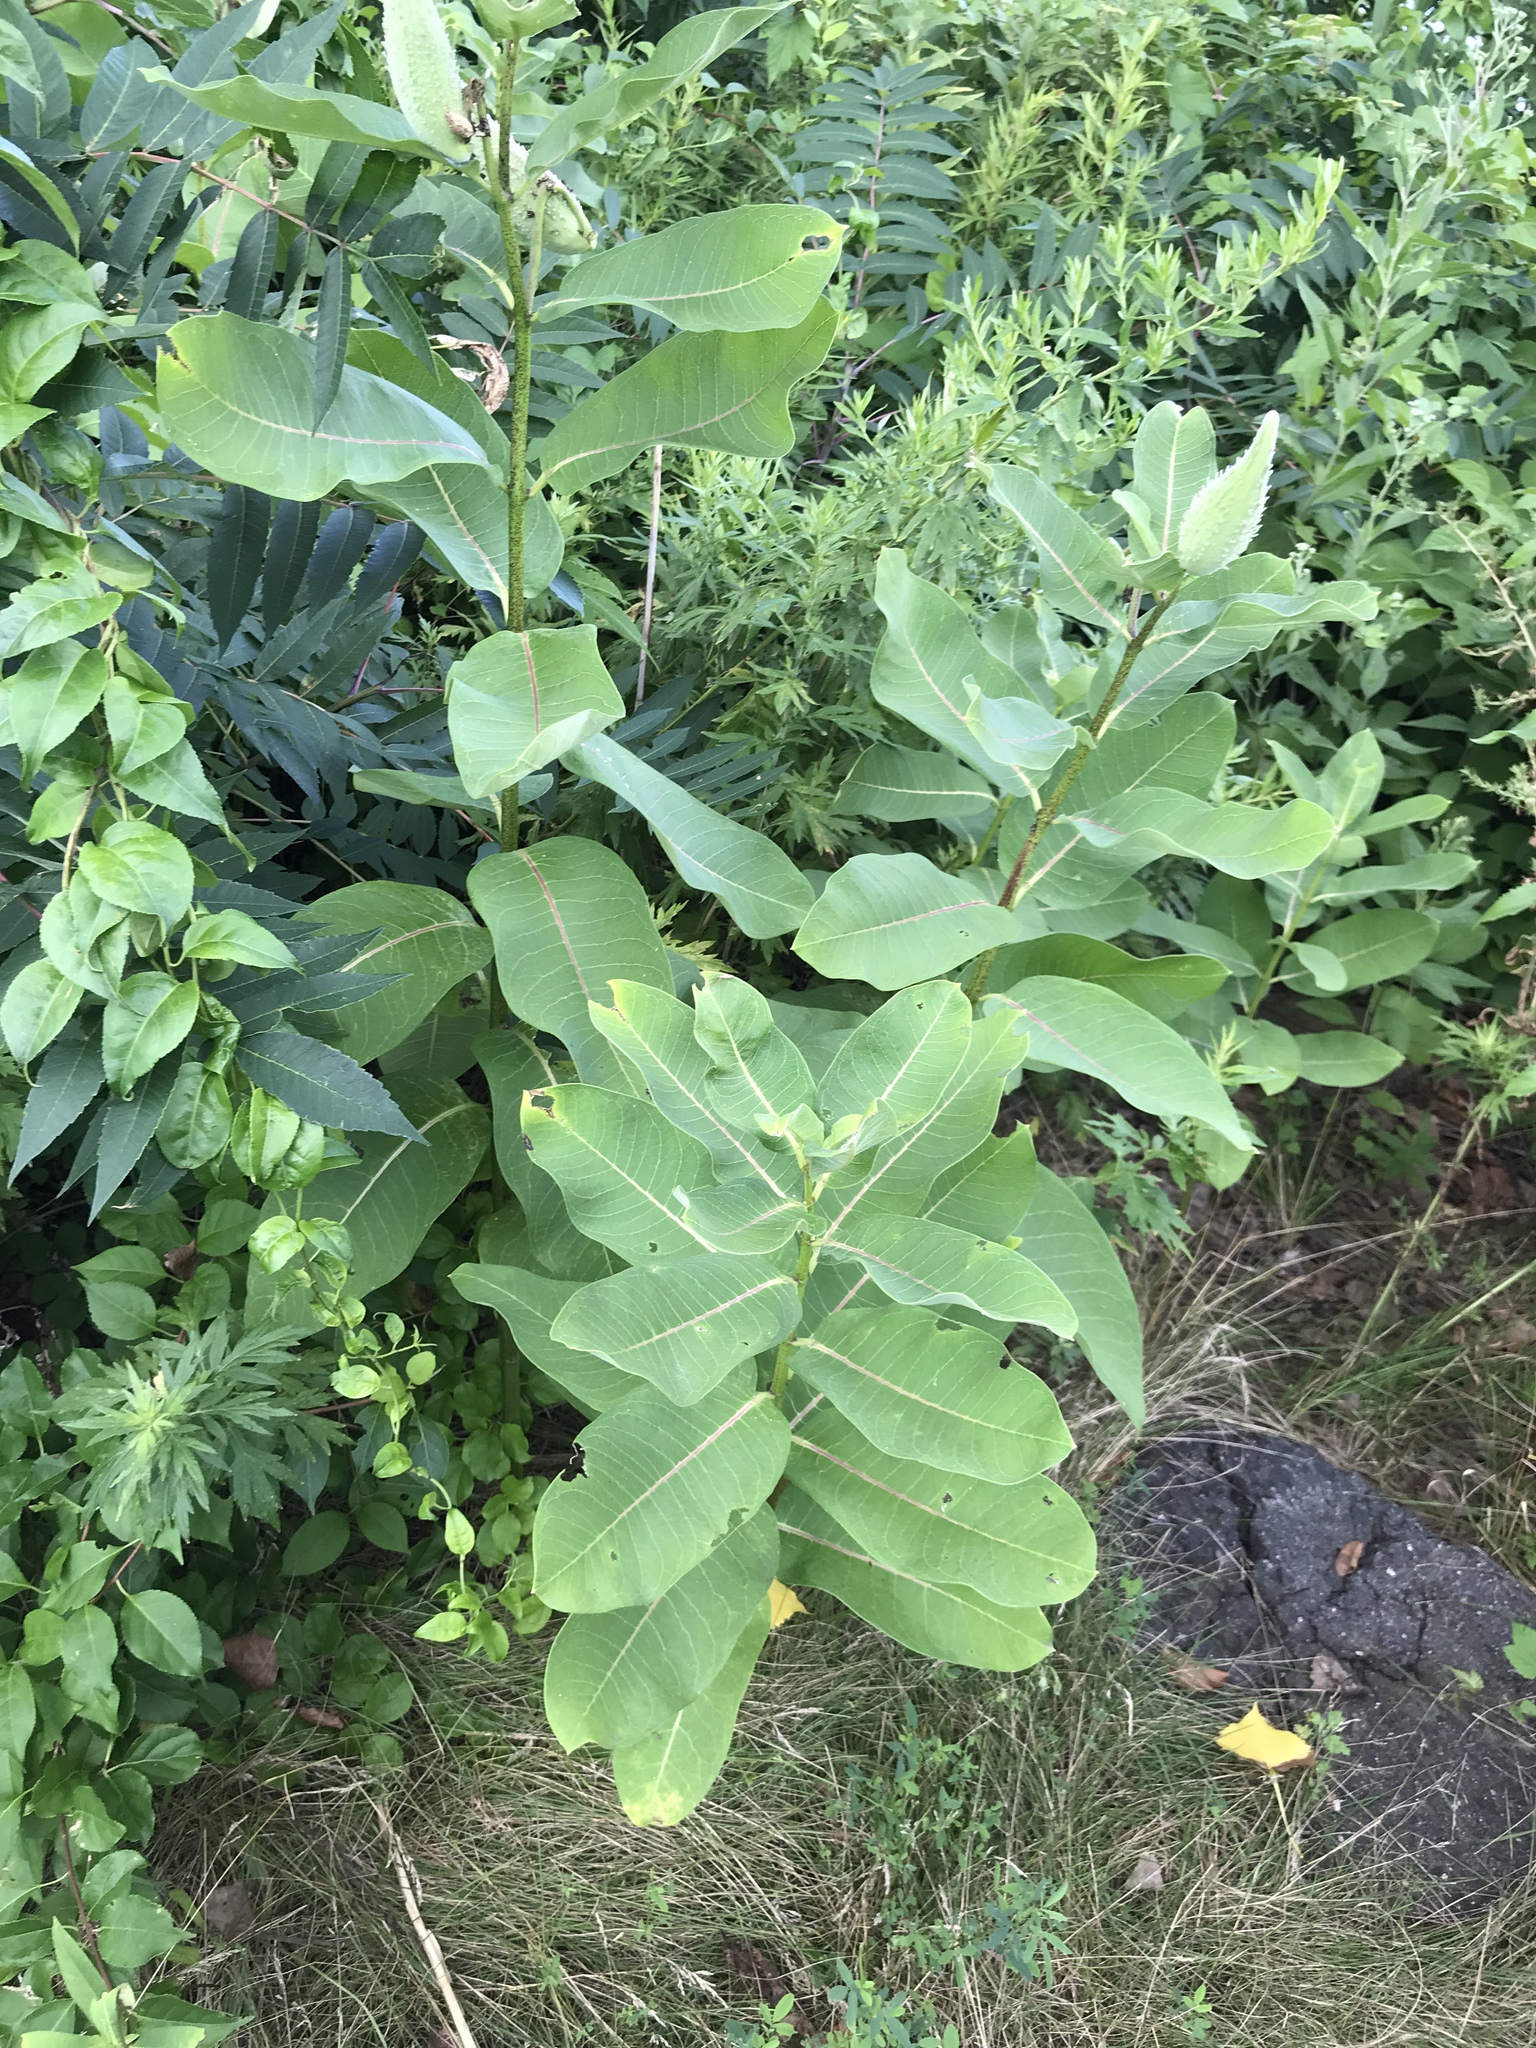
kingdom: Plantae
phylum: Tracheophyta
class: Magnoliopsida
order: Gentianales
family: Apocynaceae
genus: Asclepias
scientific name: Asclepias syriaca
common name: Common milkweed
